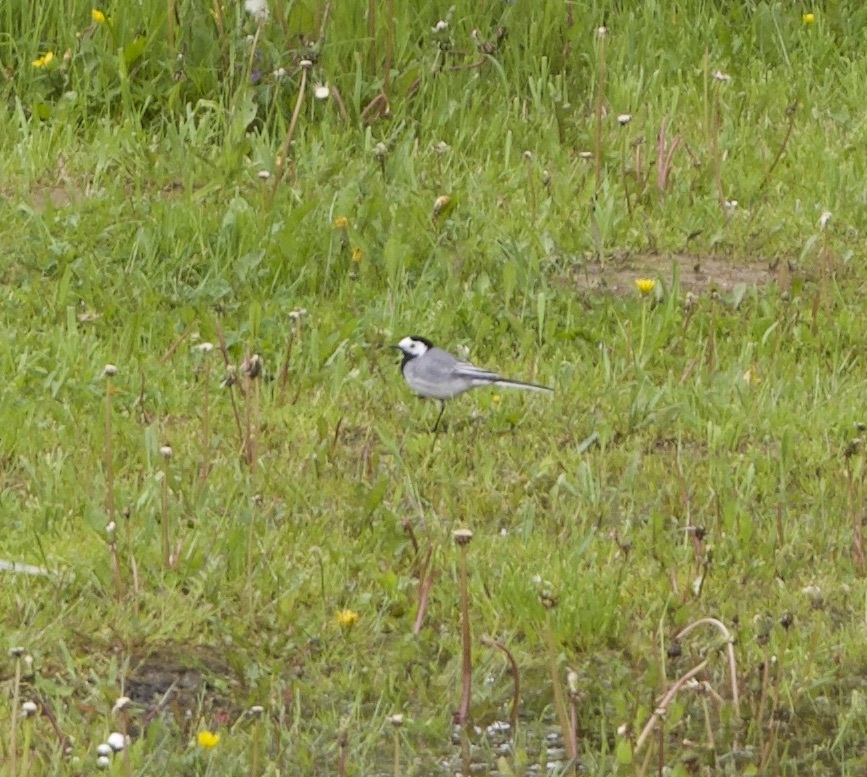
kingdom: Animalia
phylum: Chordata
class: Aves
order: Passeriformes
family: Motacillidae
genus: Motacilla
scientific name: Motacilla alba
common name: White wagtail
